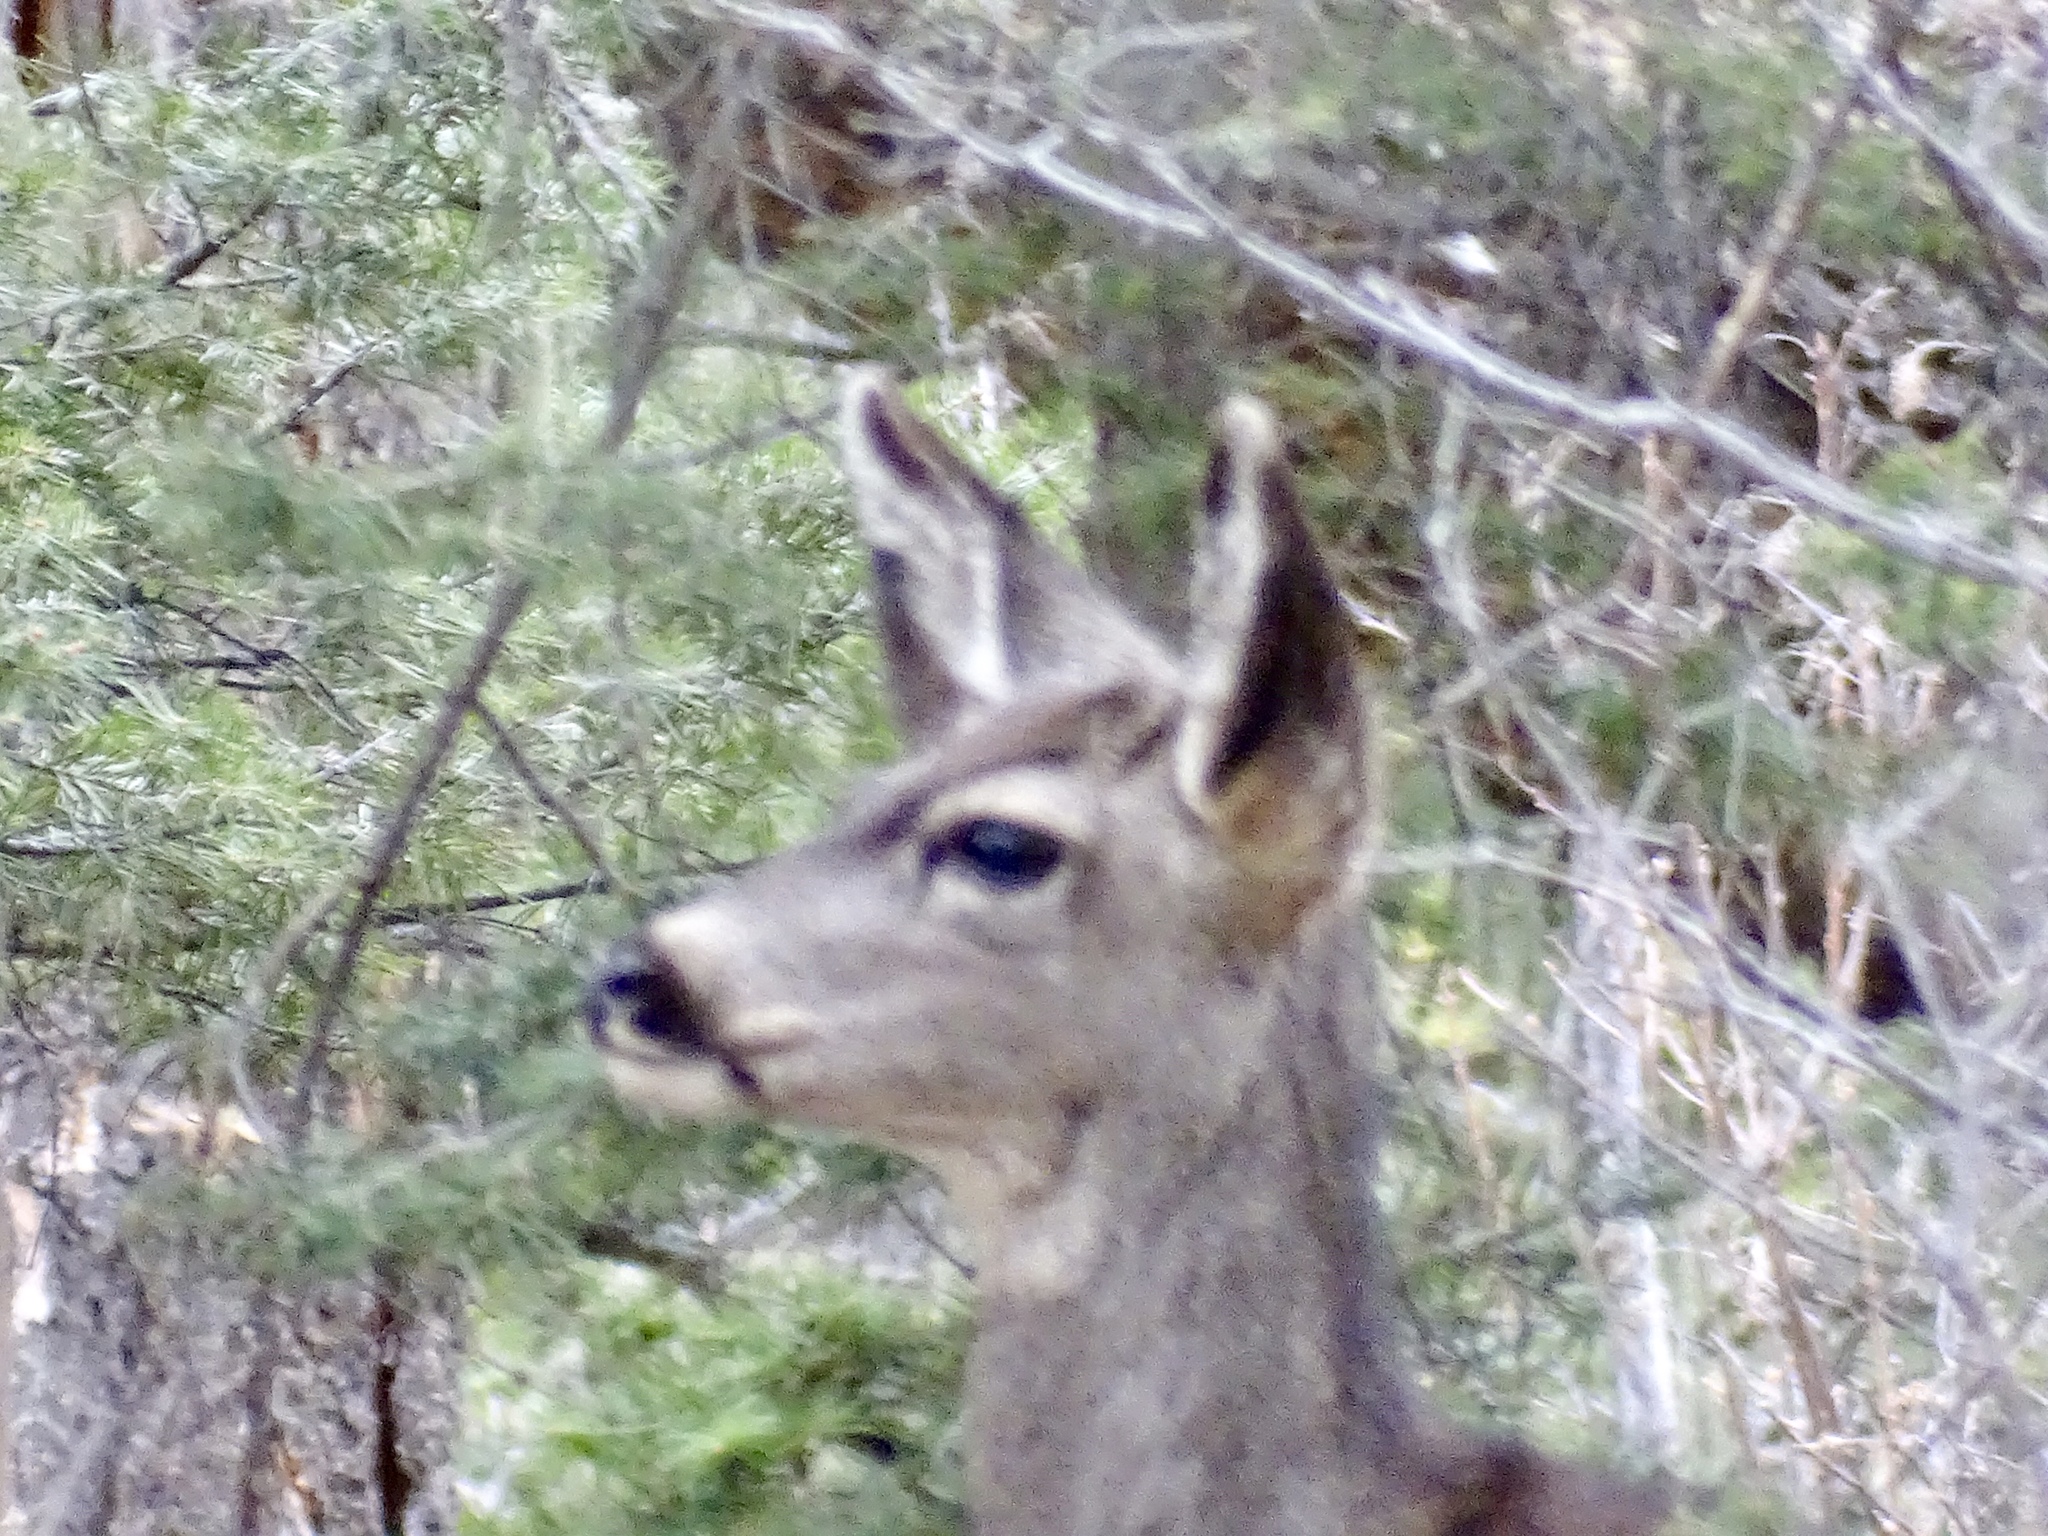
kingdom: Animalia
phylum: Chordata
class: Mammalia
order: Artiodactyla
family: Cervidae
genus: Odocoileus
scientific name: Odocoileus hemionus
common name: Mule deer
